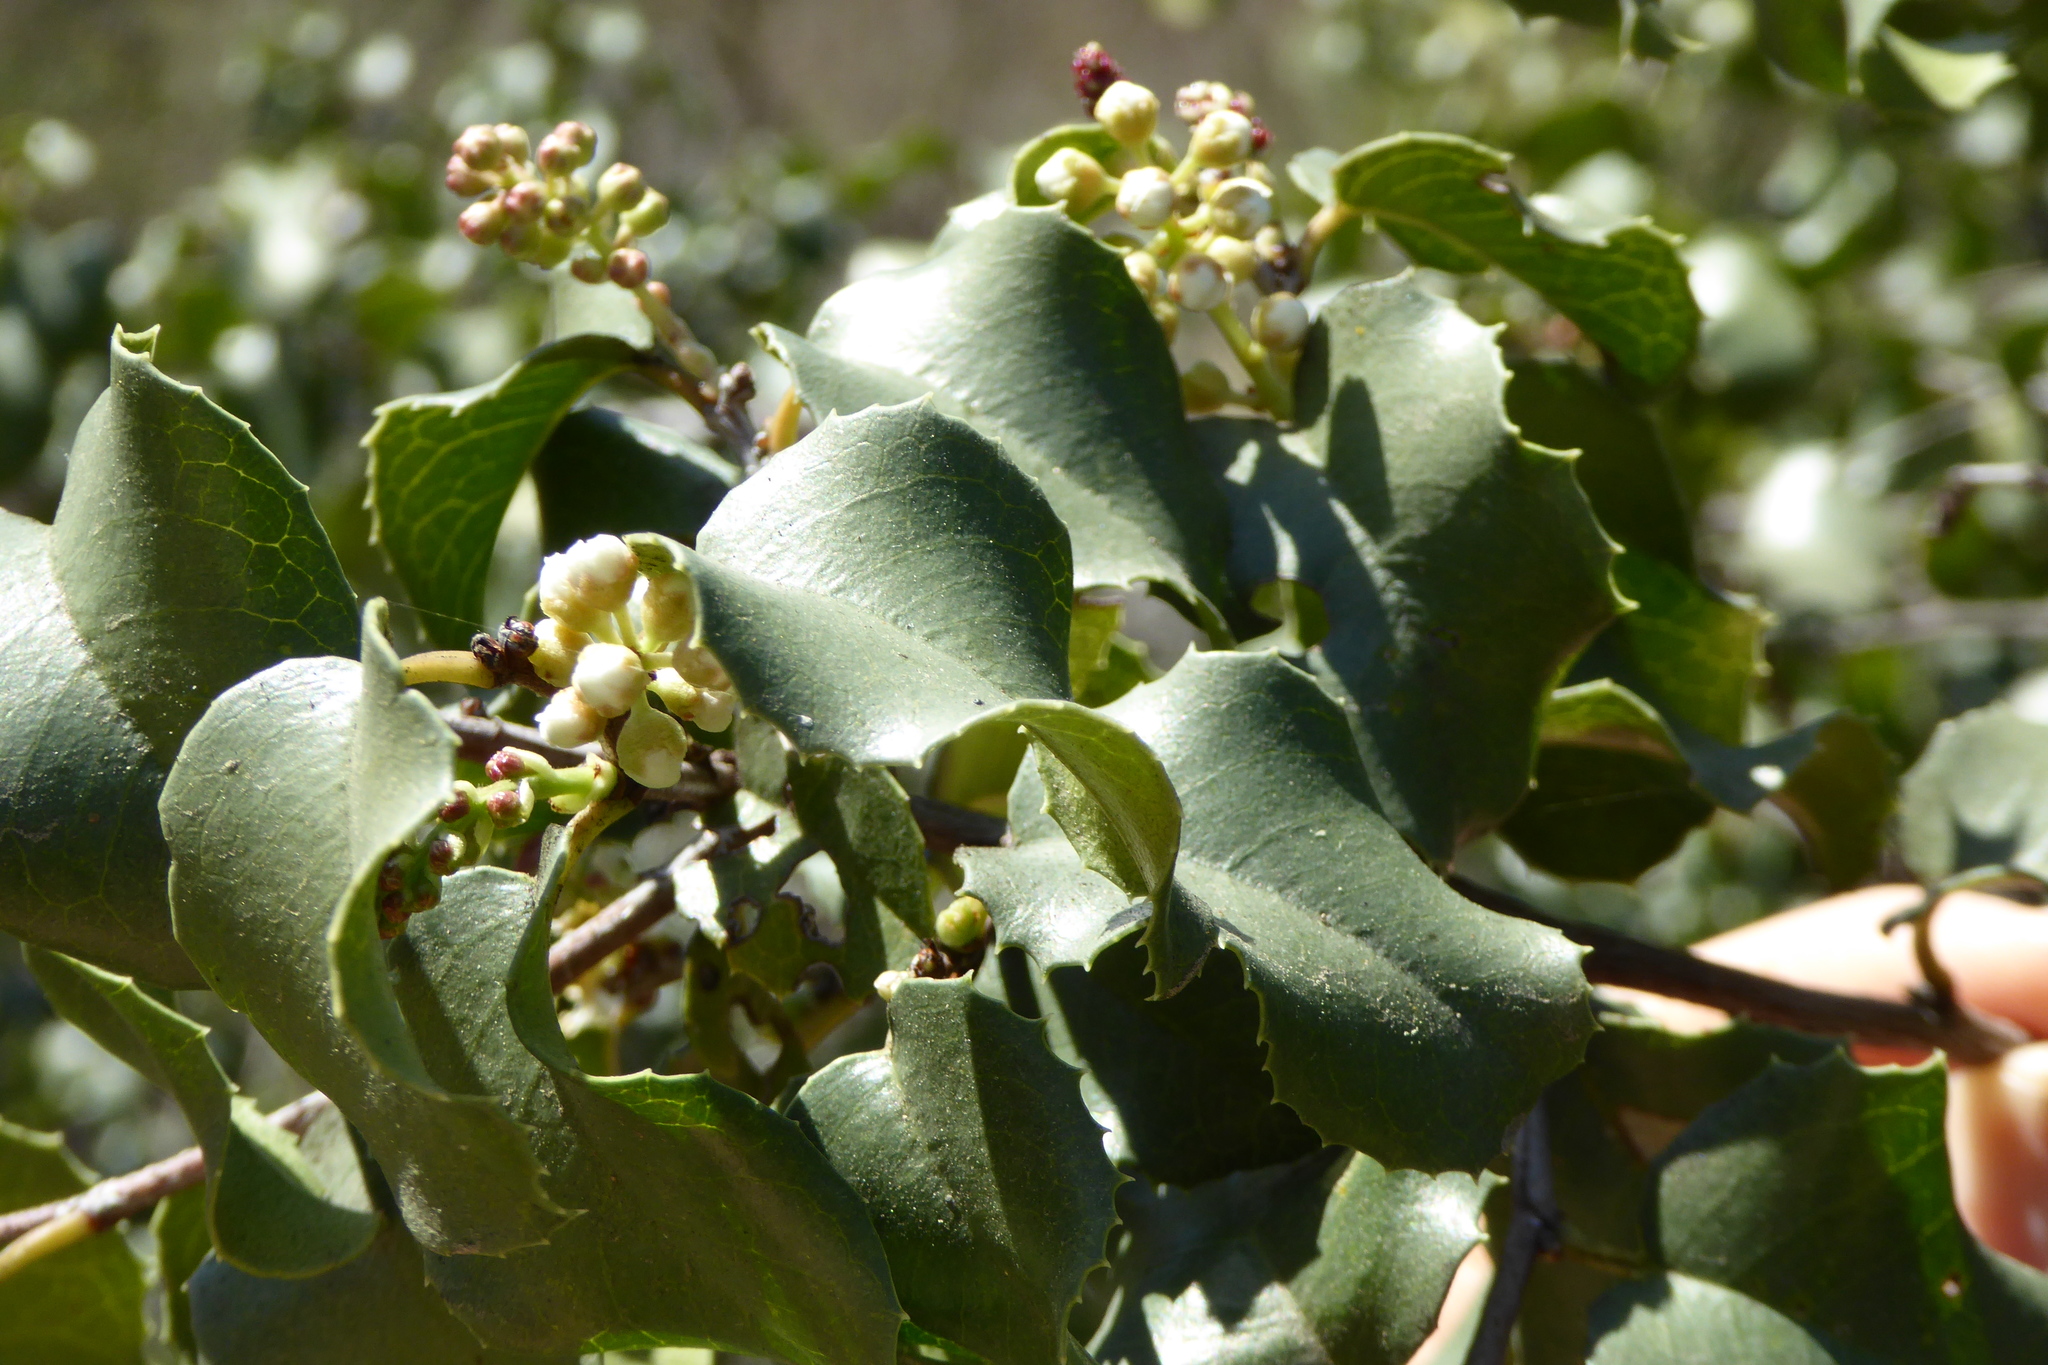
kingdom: Plantae
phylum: Tracheophyta
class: Magnoliopsida
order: Rosales
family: Rosaceae
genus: Prunus
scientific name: Prunus ilicifolia
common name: Hollyleaf cherry
